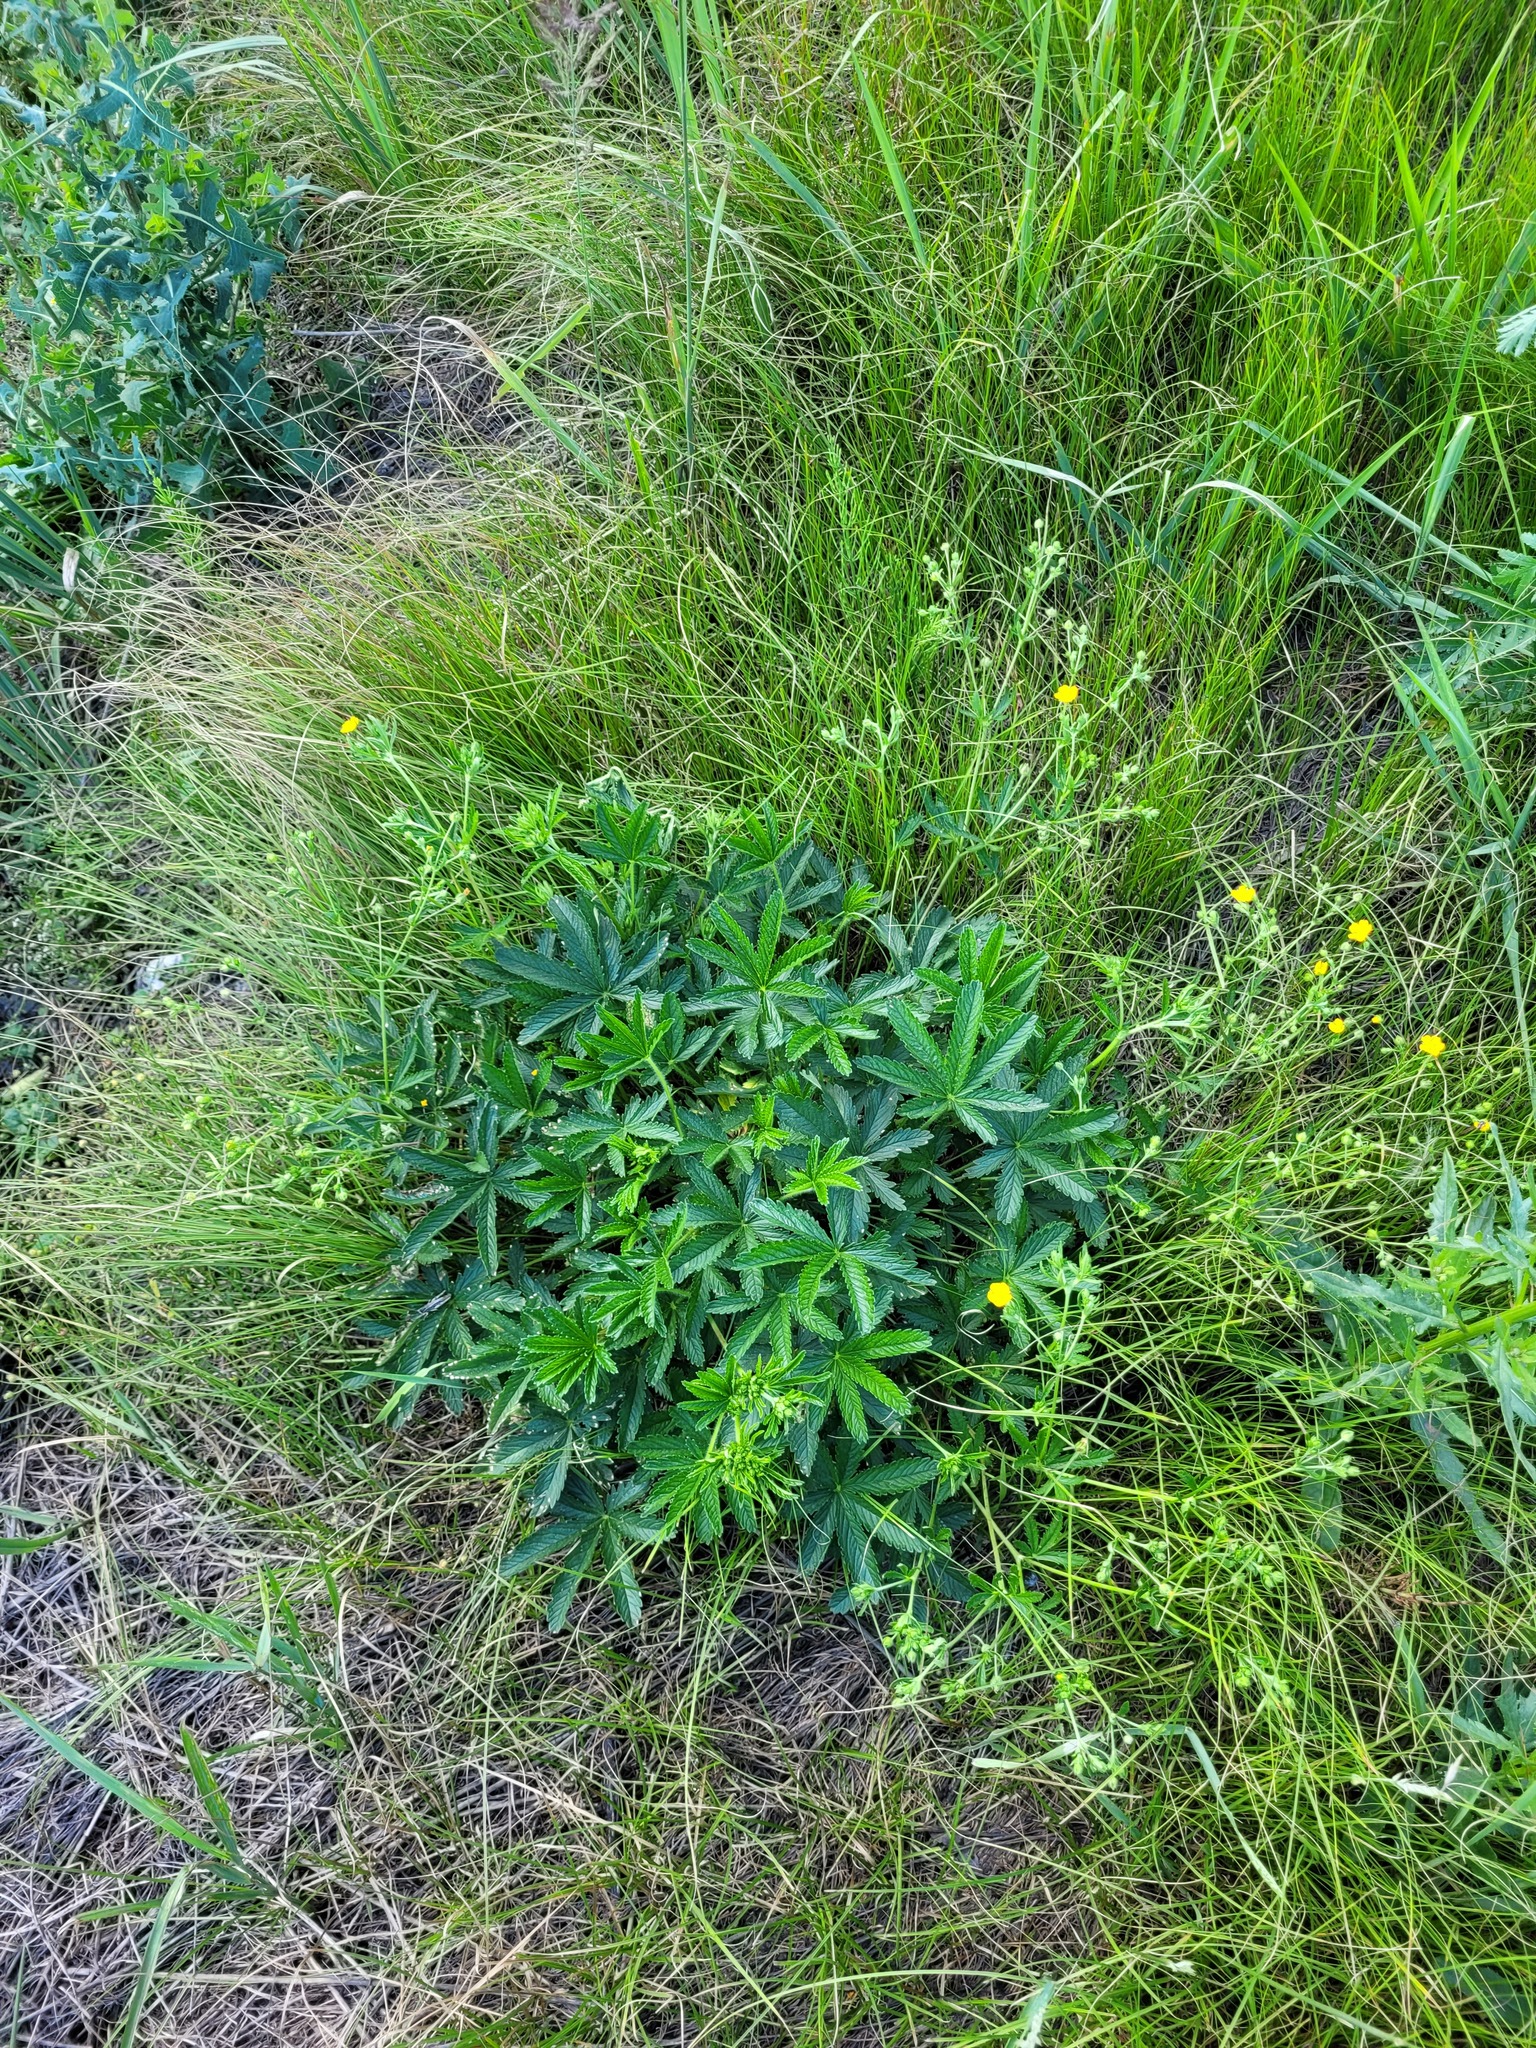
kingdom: Plantae
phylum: Tracheophyta
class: Magnoliopsida
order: Rosales
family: Rosaceae
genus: Potentilla
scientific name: Potentilla thuringiaca
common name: European cinquefoil
